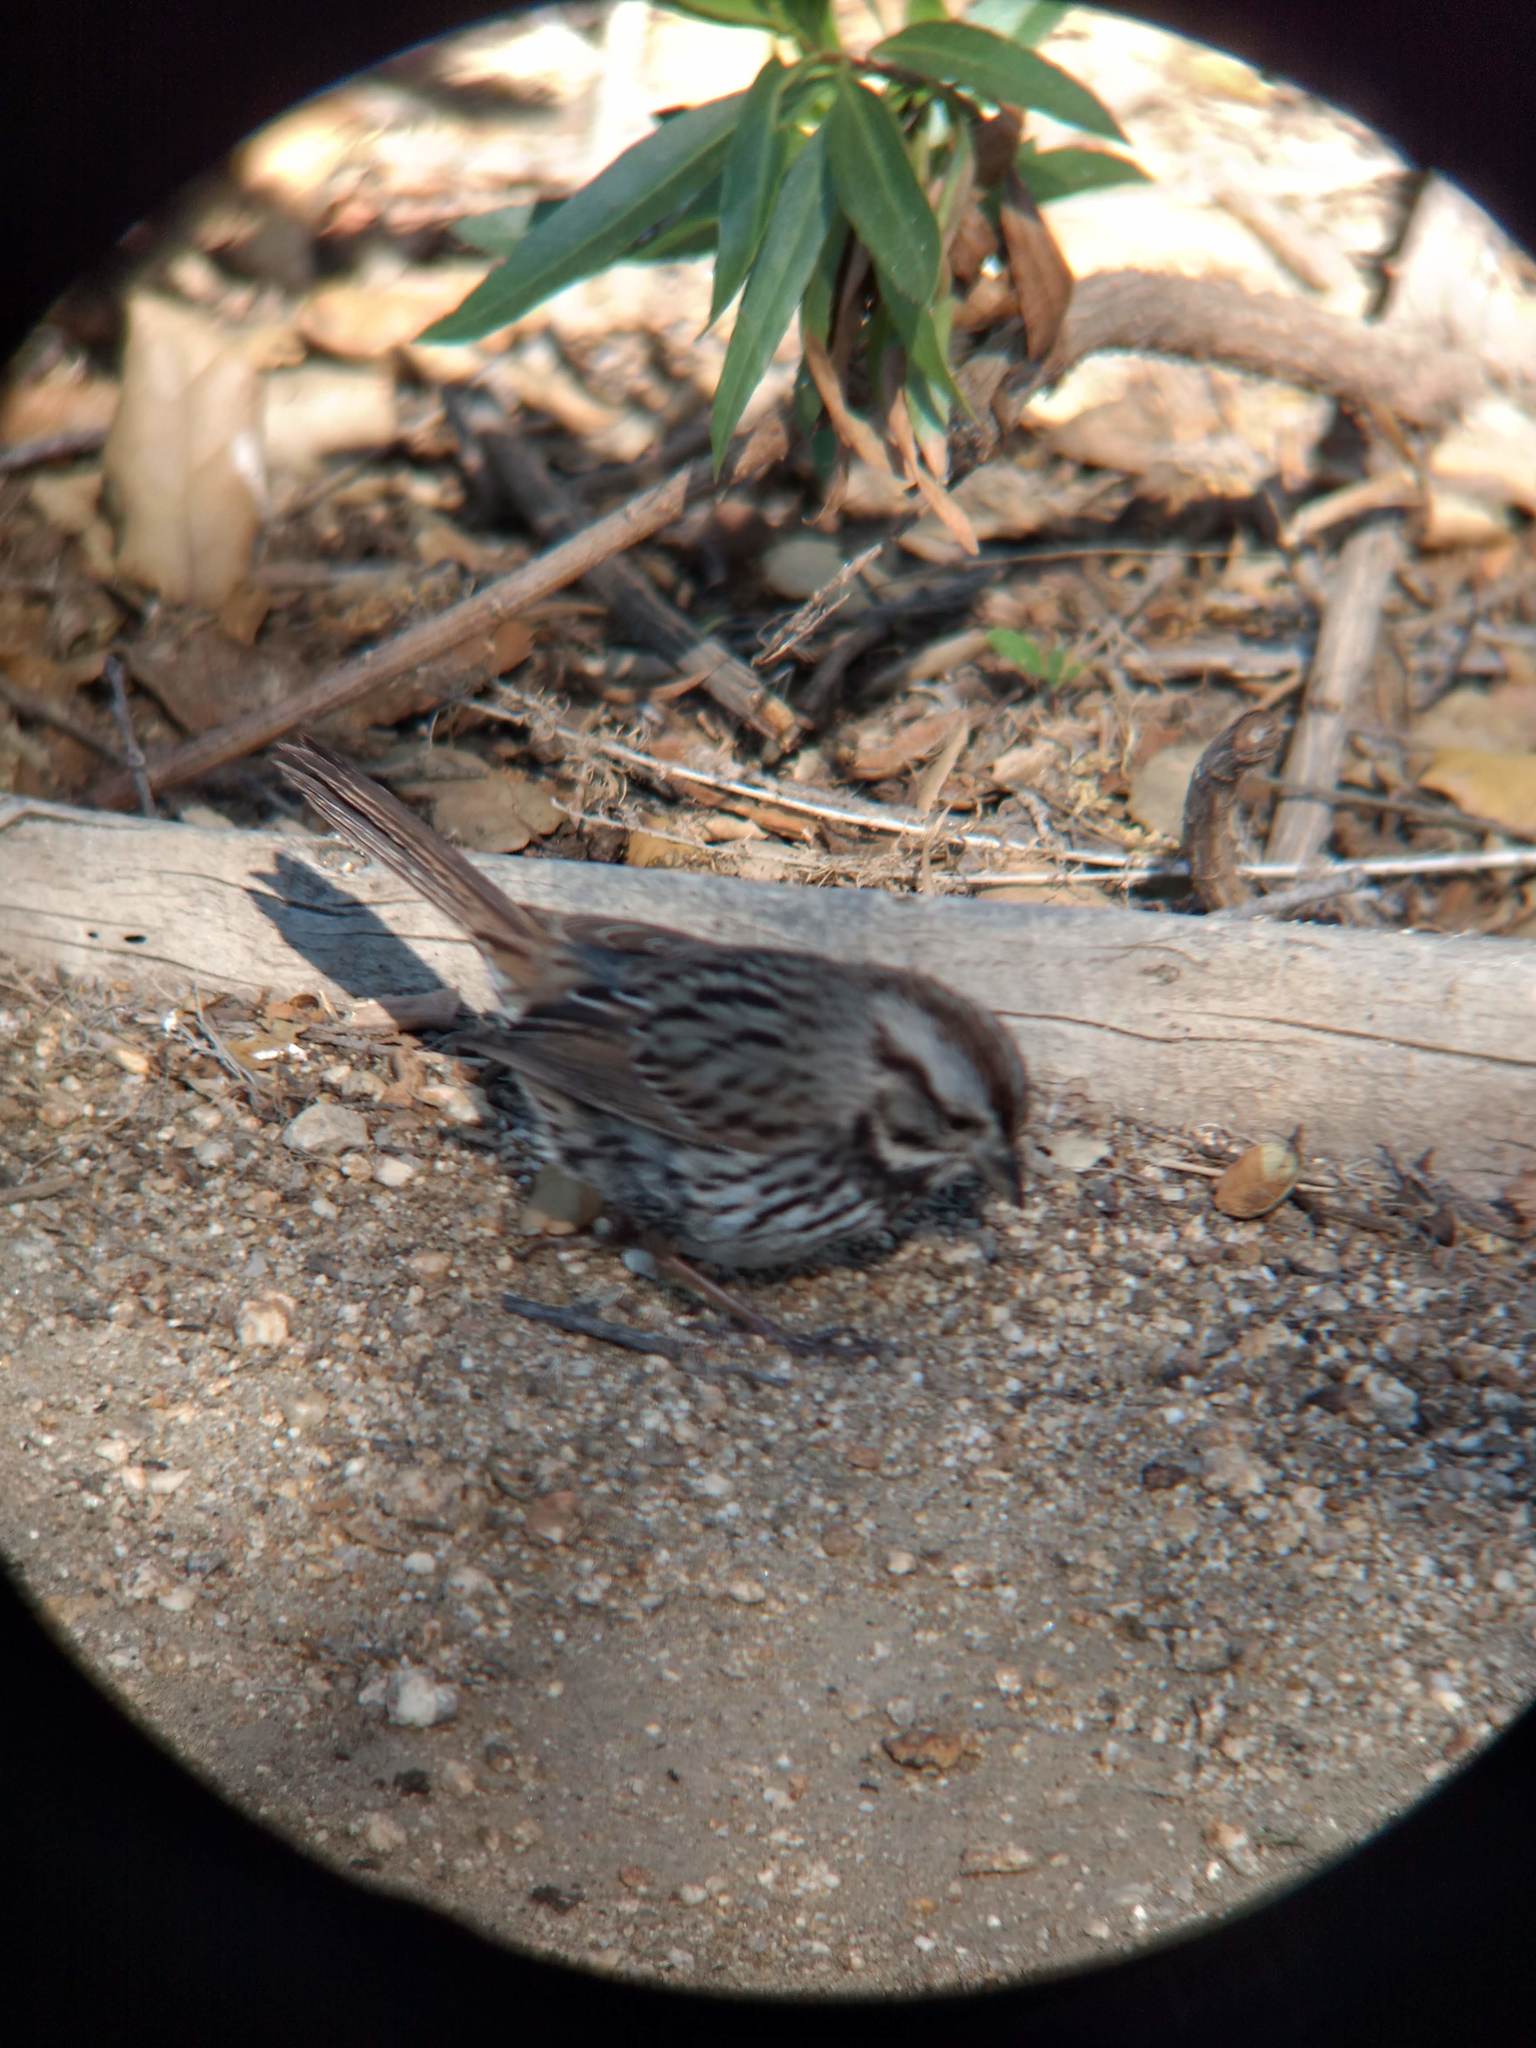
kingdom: Animalia
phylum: Chordata
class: Aves
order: Passeriformes
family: Passerellidae
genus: Melospiza
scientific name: Melospiza melodia
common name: Song sparrow
